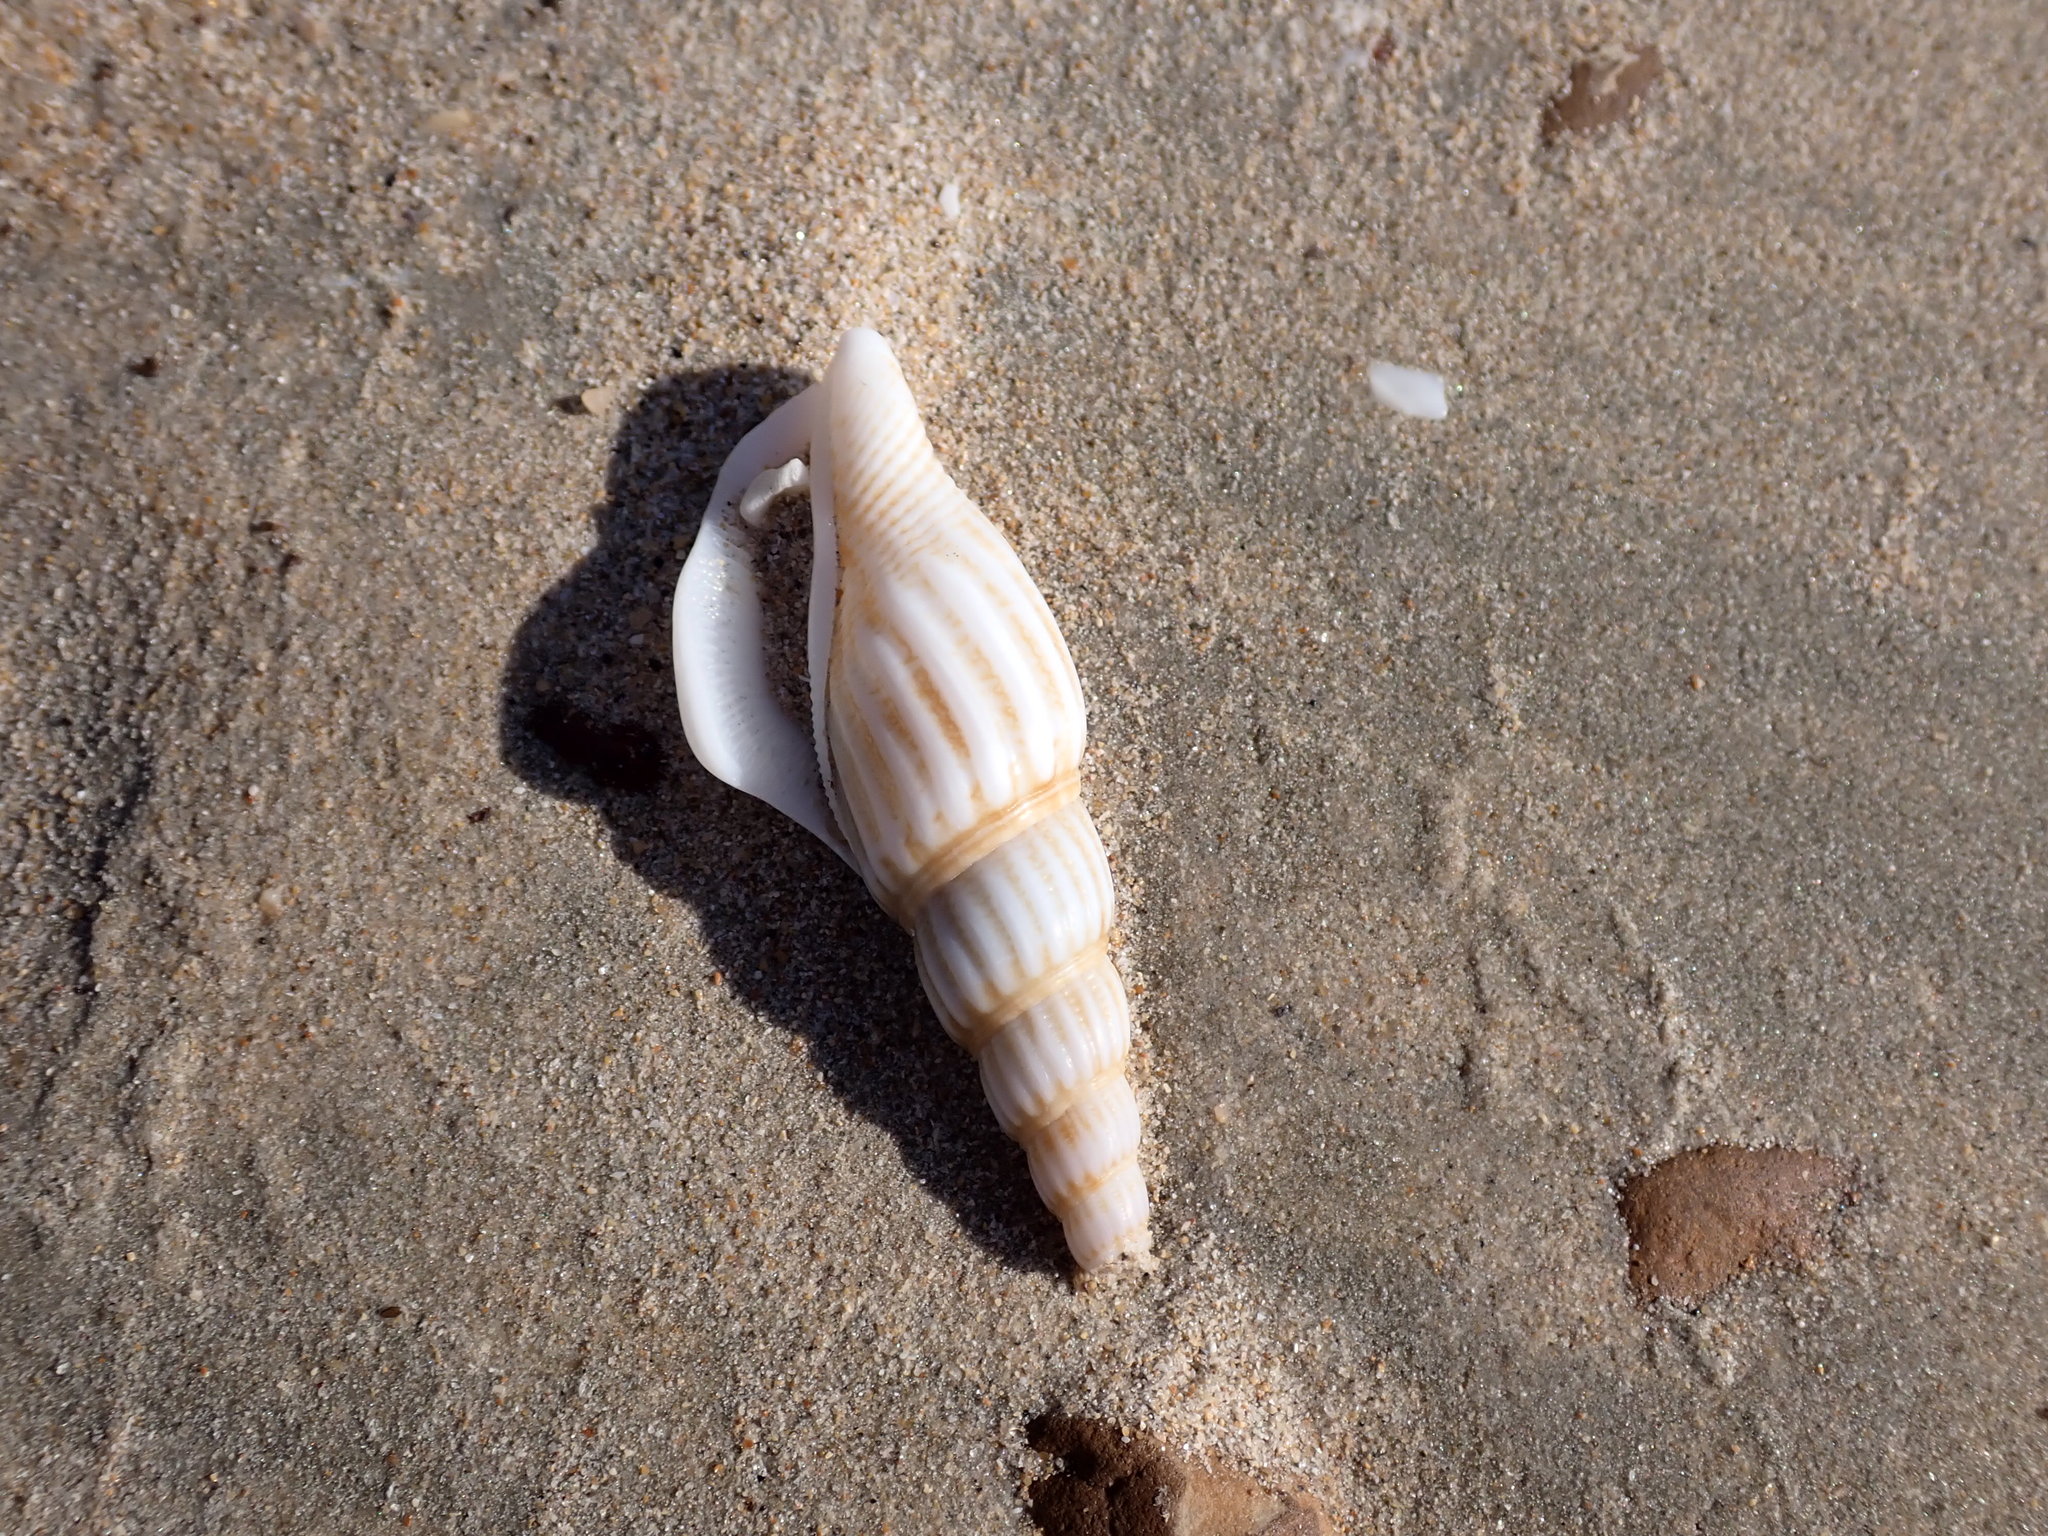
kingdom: Animalia
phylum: Mollusca
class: Gastropoda
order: Littorinimorpha
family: Strombidae
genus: Doxander
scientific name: Doxander vittatus
